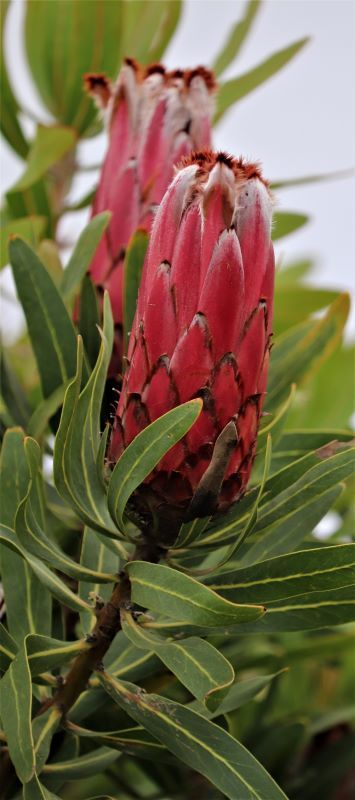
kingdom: Plantae
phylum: Tracheophyta
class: Magnoliopsida
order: Proteales
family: Proteaceae
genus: Protea
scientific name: Protea neriifolia
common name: Blue sugarbush
